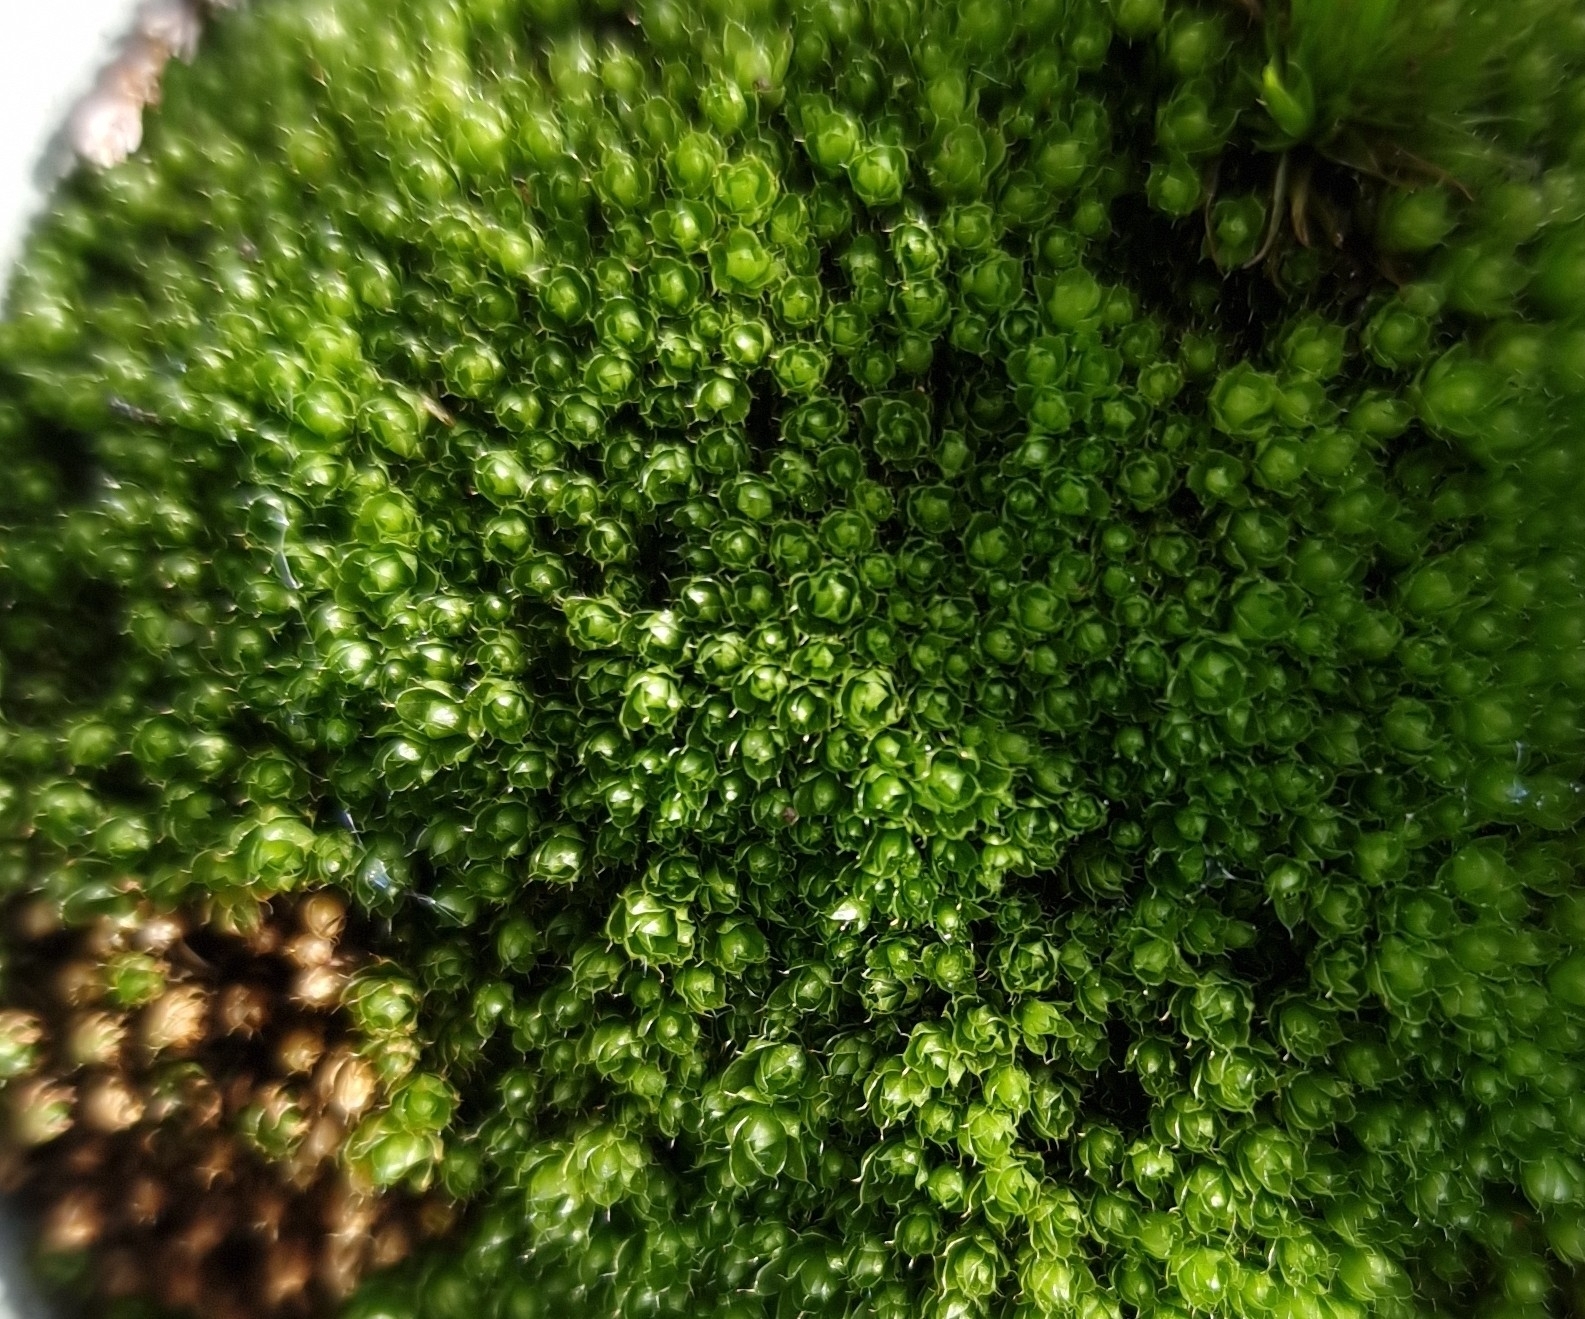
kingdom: Plantae
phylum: Bryophyta
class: Bryopsida
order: Bryales
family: Bryaceae
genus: Rosulabryum
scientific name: Rosulabryum capillare
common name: Capillary thread-moss
